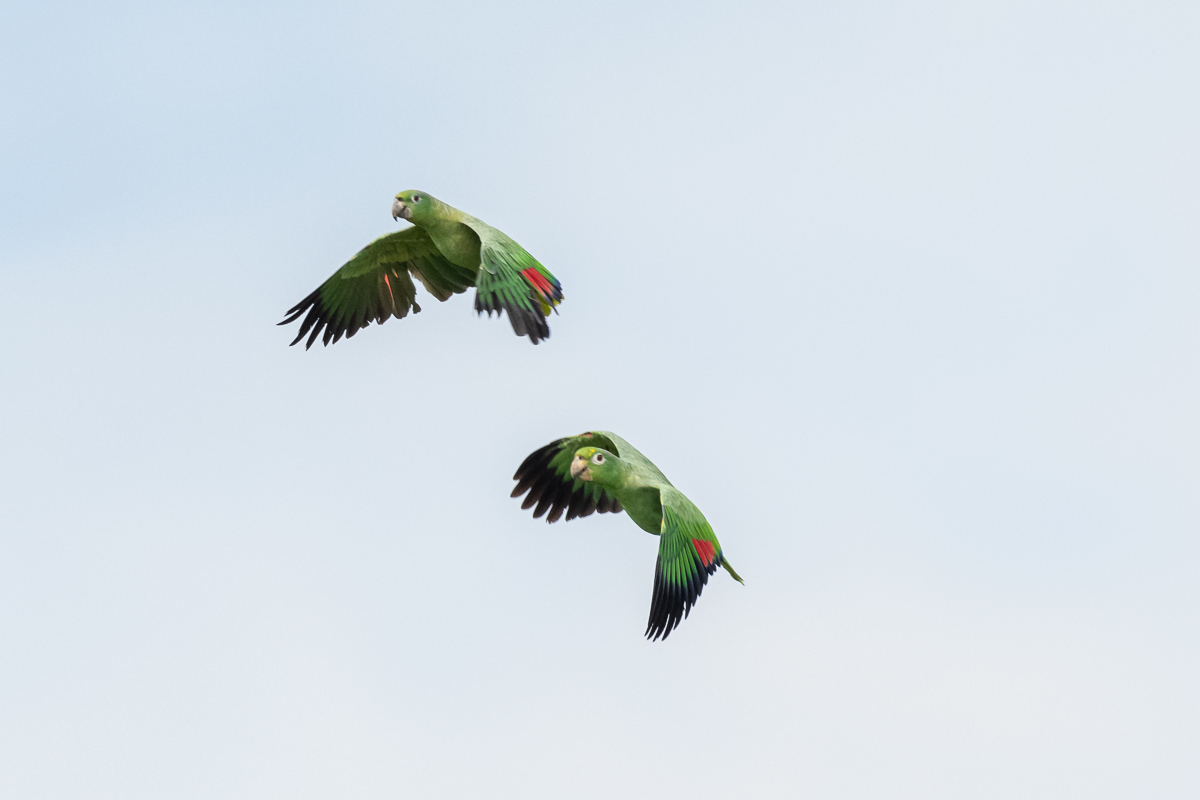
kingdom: Animalia
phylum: Chordata
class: Aves
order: Psittaciformes
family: Psittacidae
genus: Amazona
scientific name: Amazona farinosa
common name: Mealy parrot
